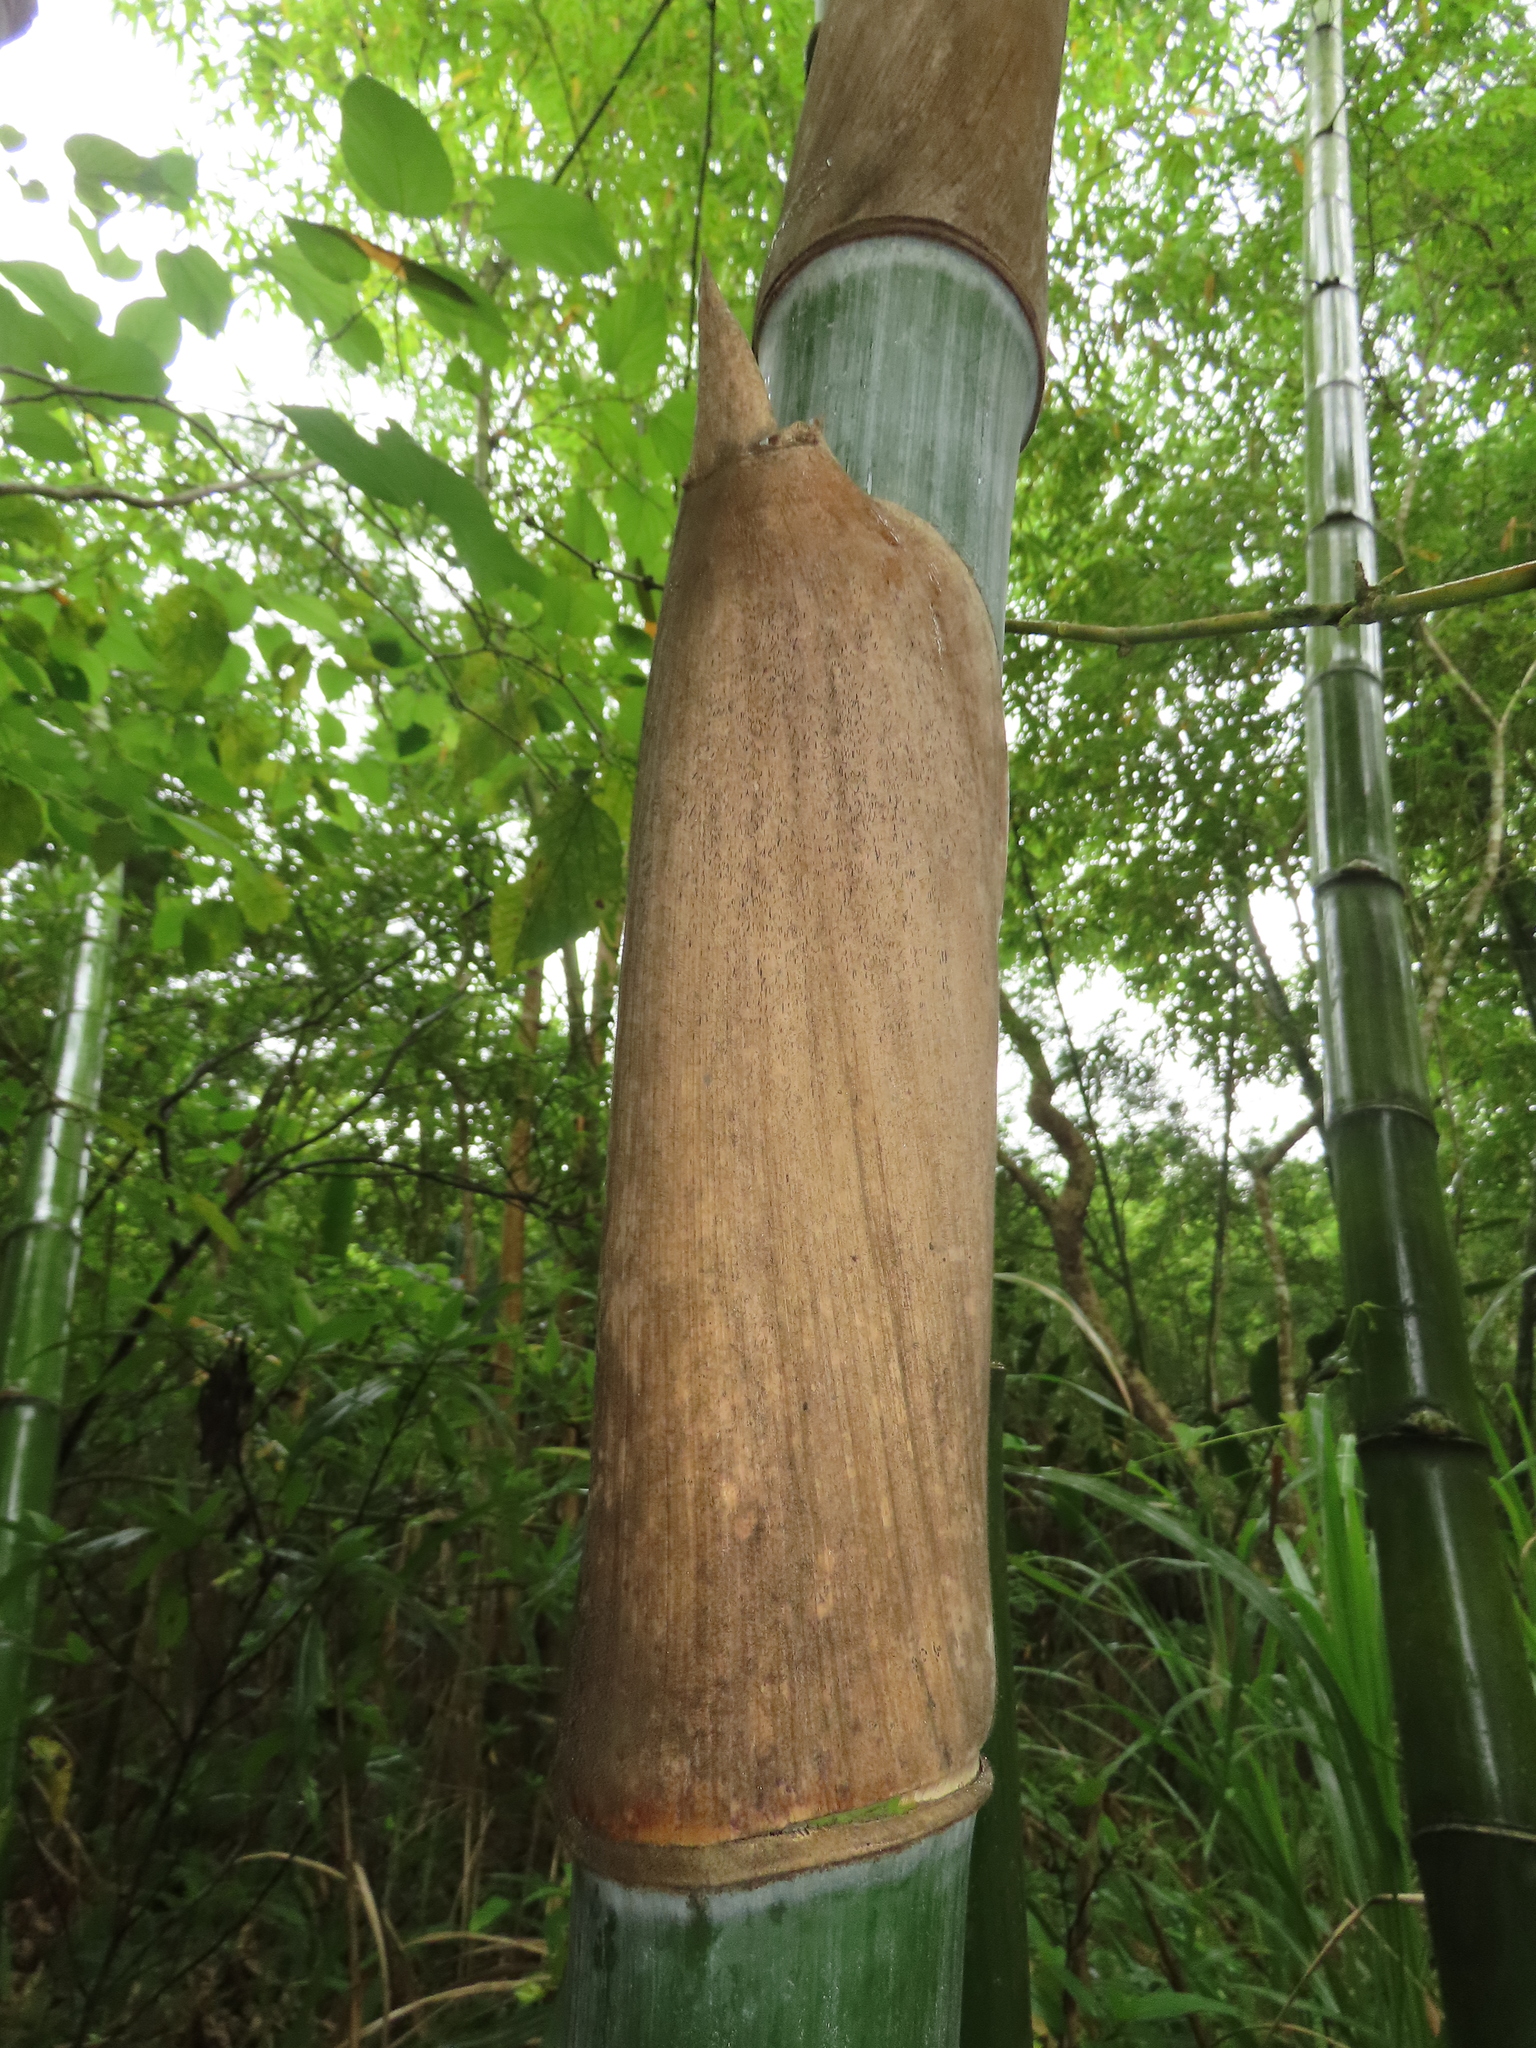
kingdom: Plantae
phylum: Tracheophyta
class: Liliopsida
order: Poales
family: Poaceae
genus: Bambusa
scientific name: Bambusa spinosa
